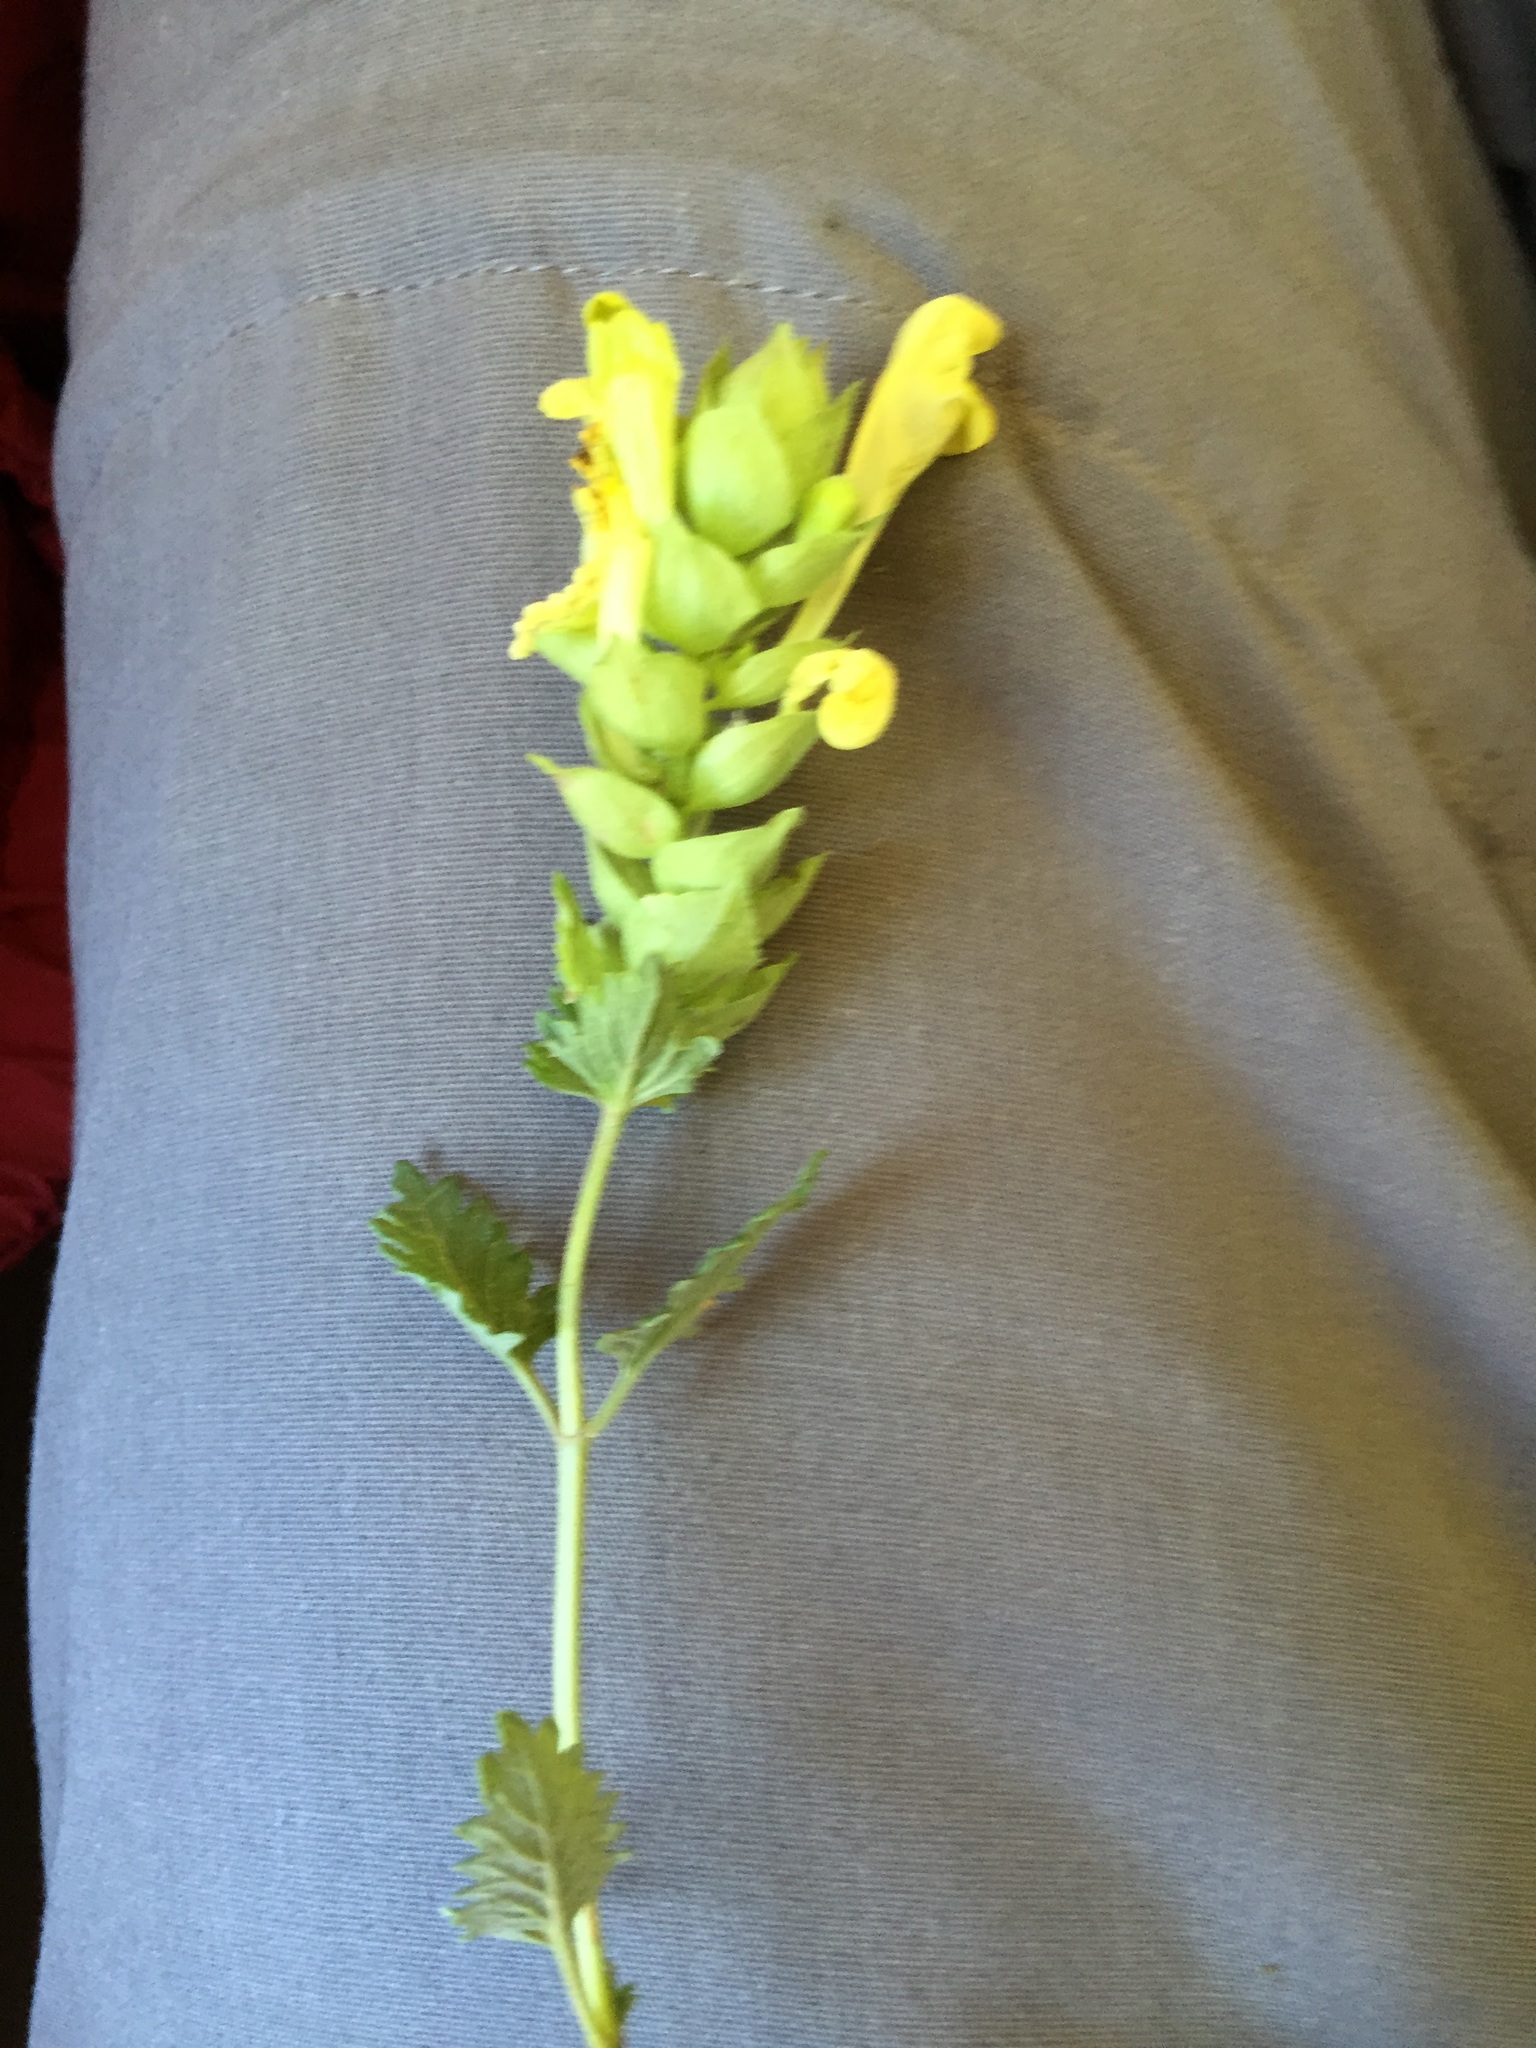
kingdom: Plantae
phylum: Tracheophyta
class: Magnoliopsida
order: Lamiales
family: Lamiaceae
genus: Scutellaria
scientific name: Scutellaria orientalis
